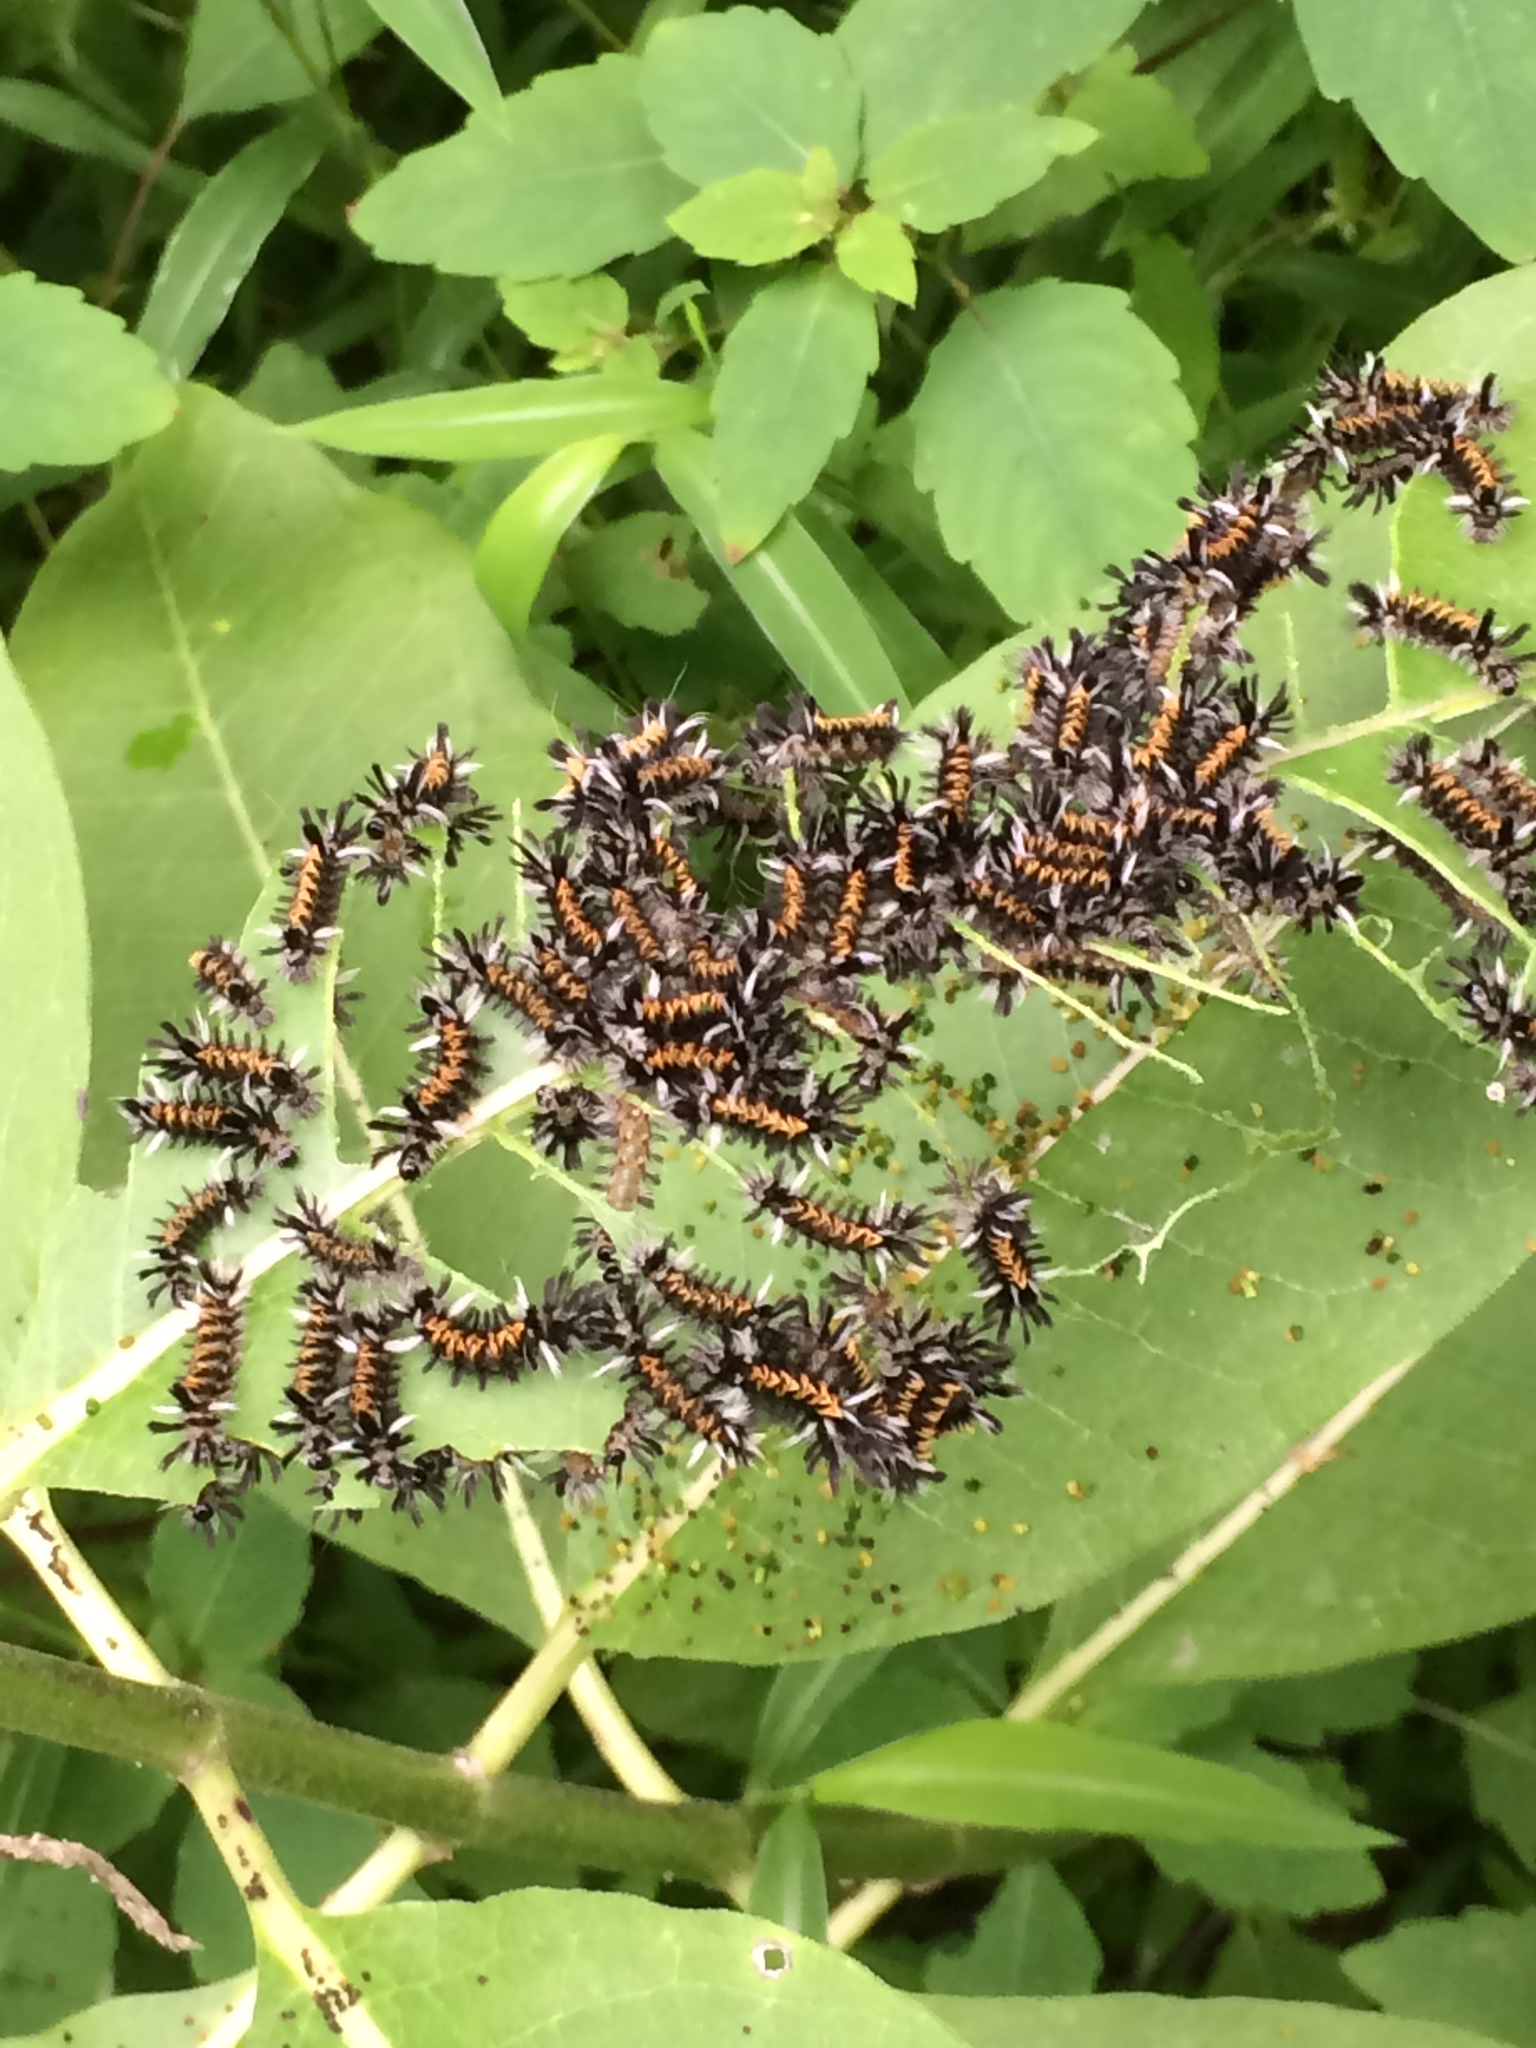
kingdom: Animalia
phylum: Arthropoda
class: Insecta
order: Lepidoptera
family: Erebidae
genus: Euchaetes
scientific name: Euchaetes egle
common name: Milkweed tussock moth
